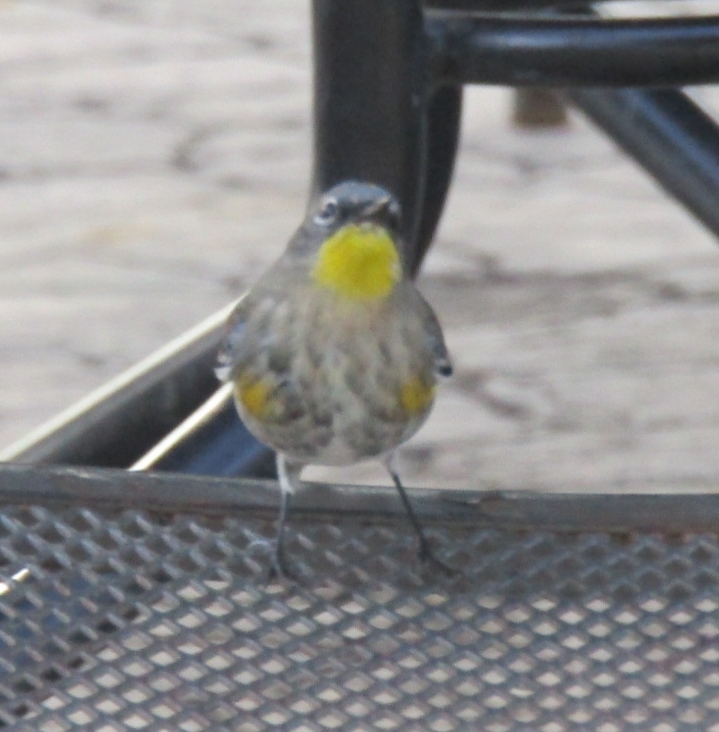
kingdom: Animalia
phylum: Chordata
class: Aves
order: Passeriformes
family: Parulidae
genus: Setophaga
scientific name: Setophaga coronata
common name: Myrtle warbler
